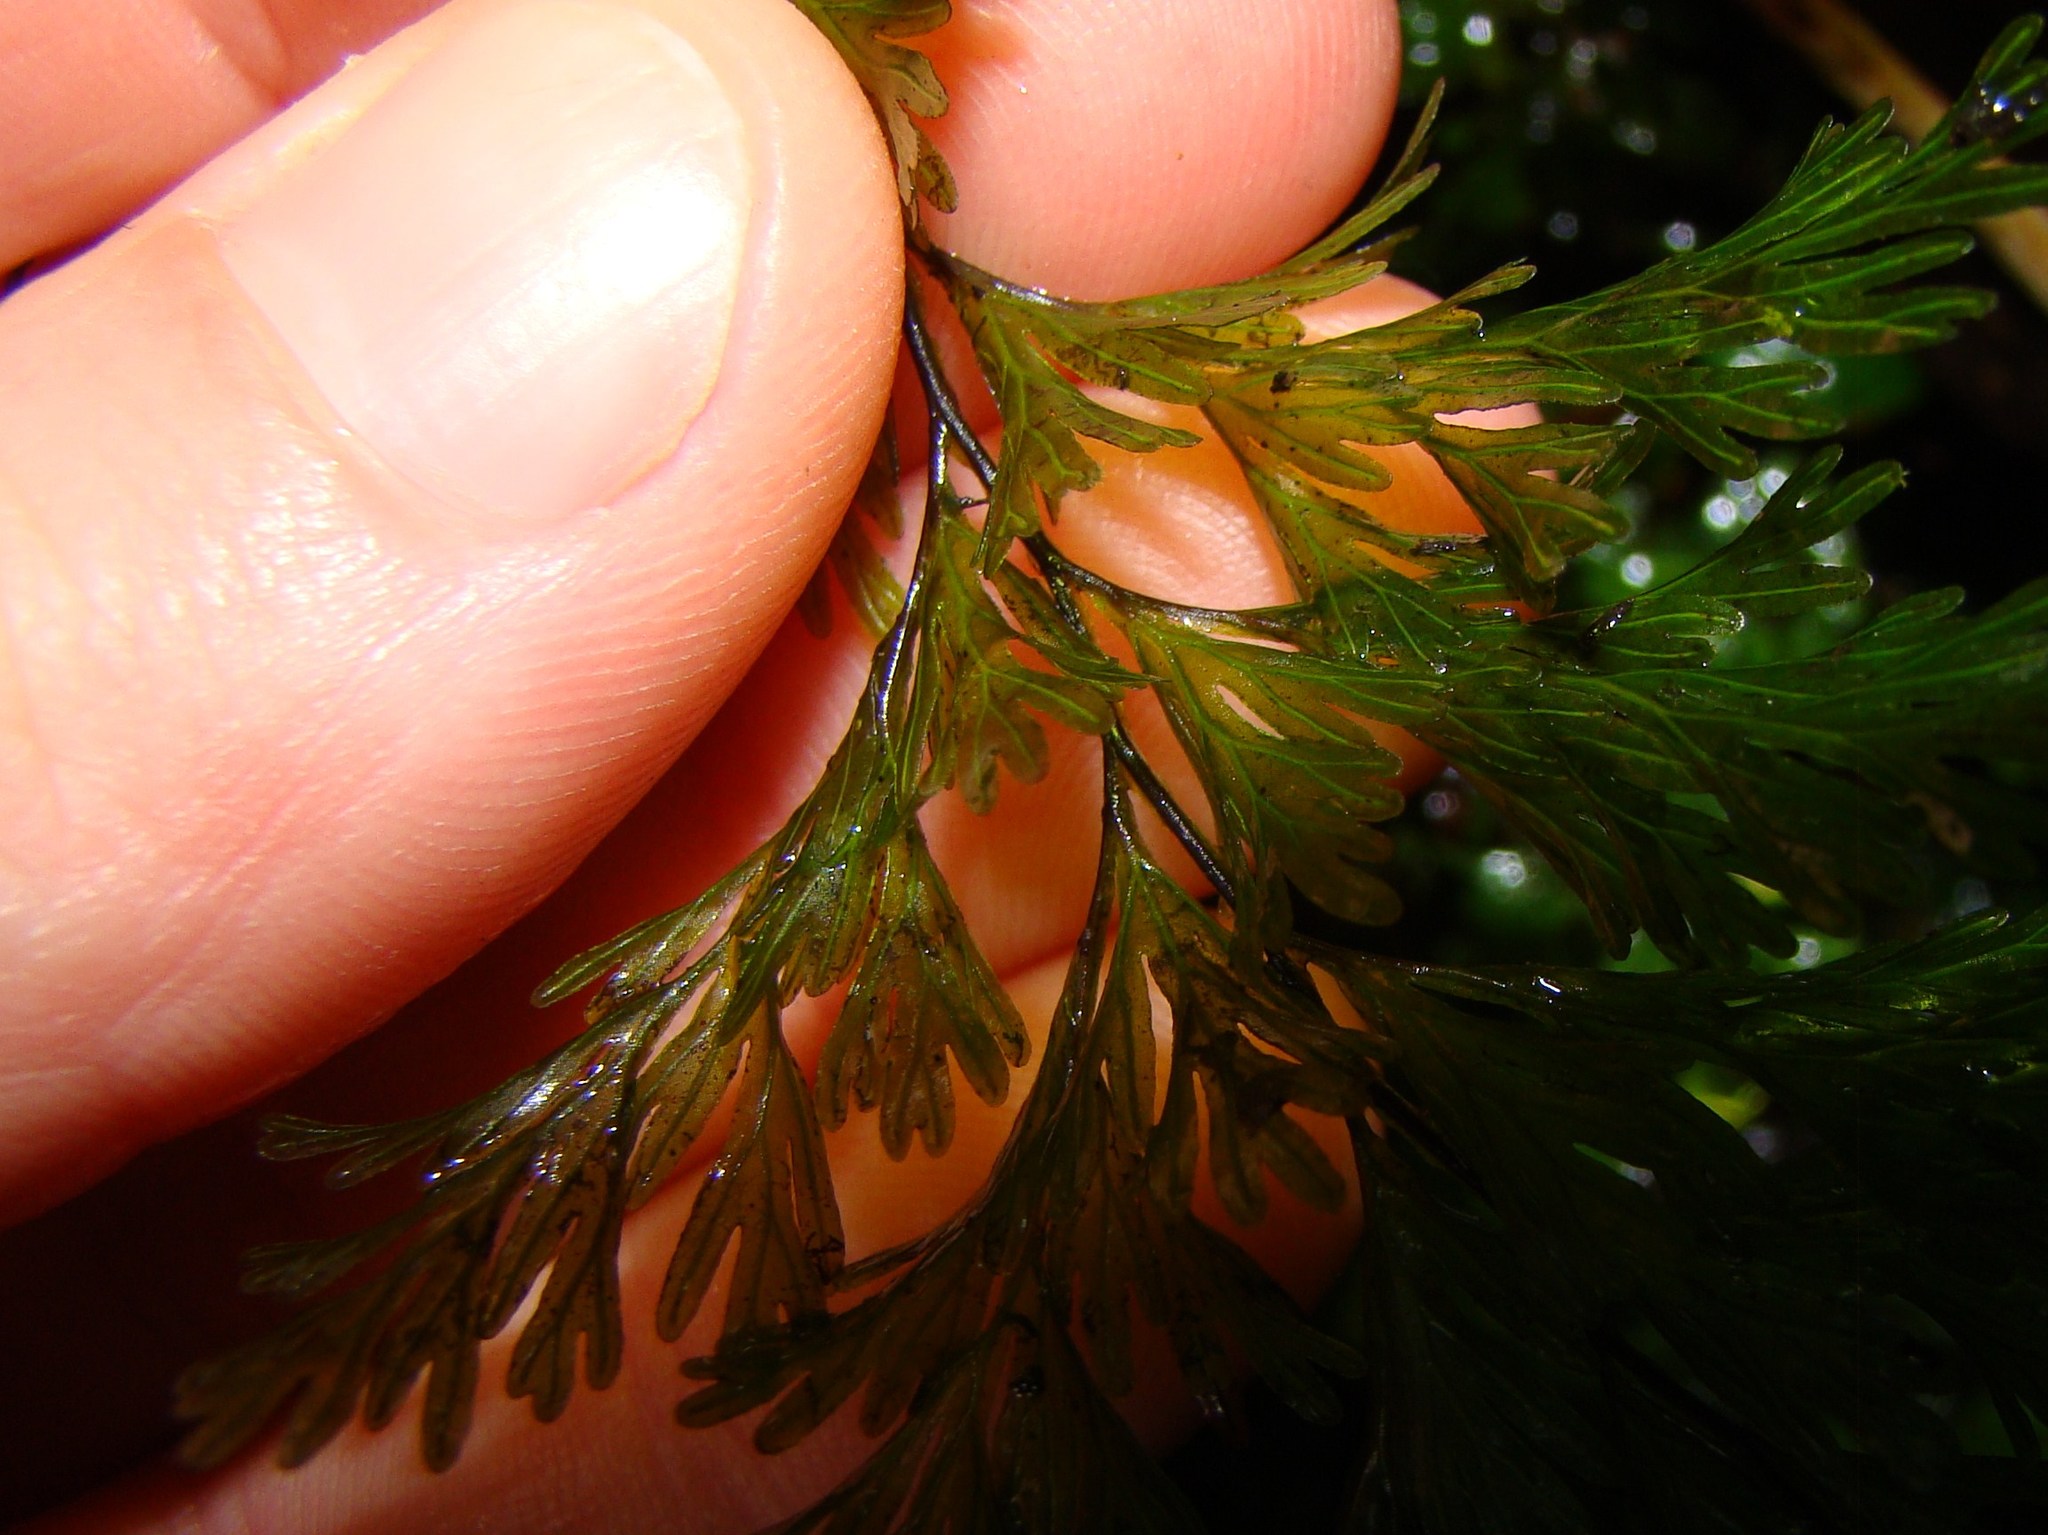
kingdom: Plantae
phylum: Tracheophyta
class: Polypodiopsida
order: Hymenophyllales
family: Hymenophyllaceae
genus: Hymenophyllum
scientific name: Hymenophyllum demissum
